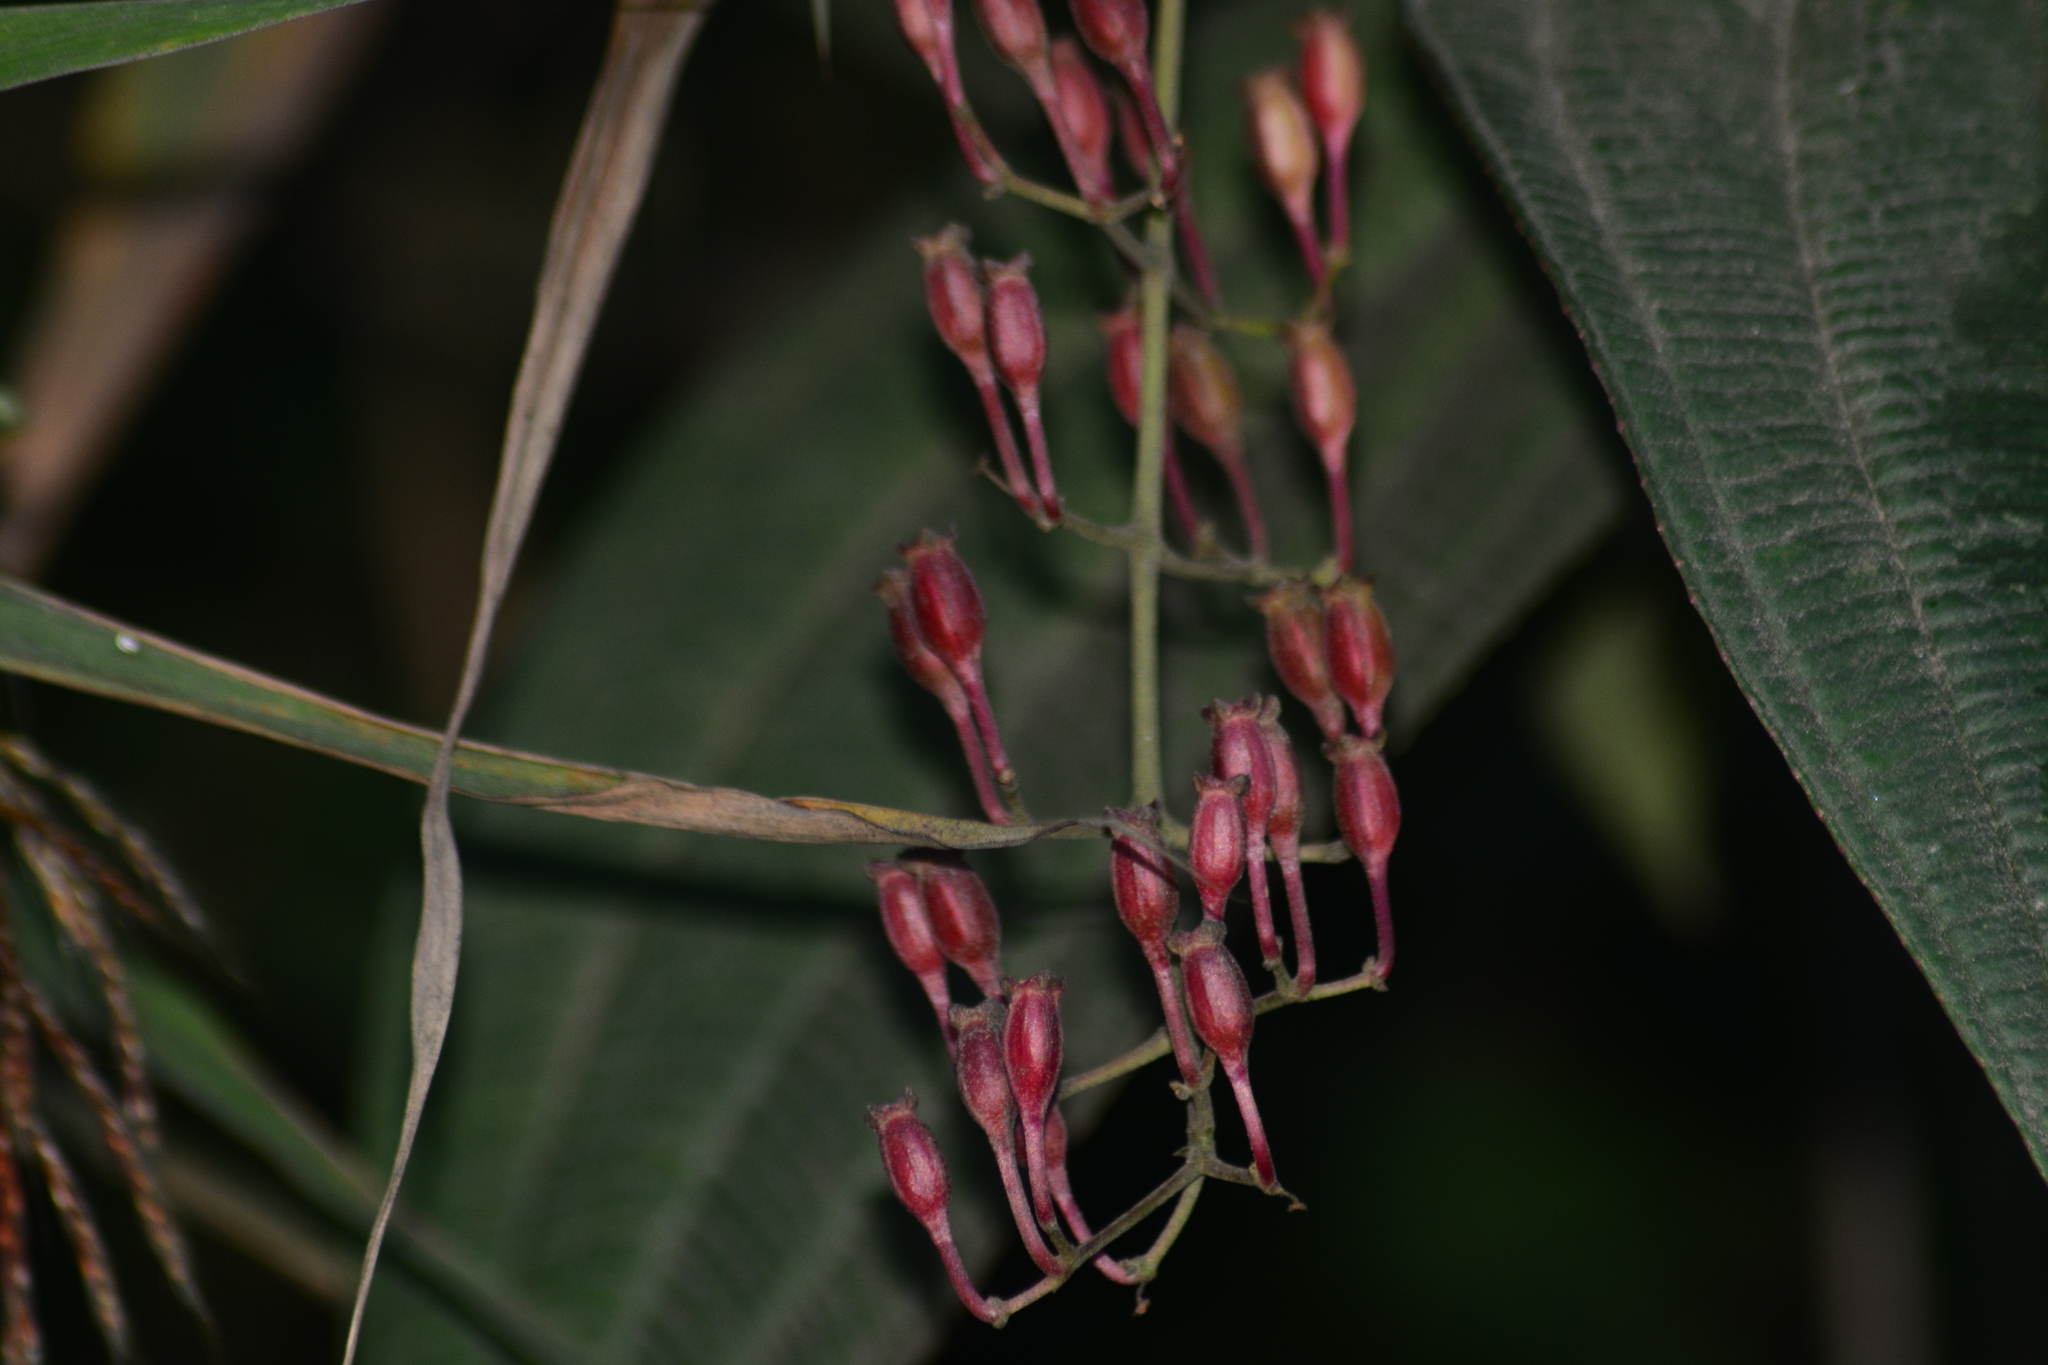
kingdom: Plantae
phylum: Tracheophyta
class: Magnoliopsida
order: Myrtales
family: Melastomataceae
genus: Oxyspora
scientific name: Oxyspora paniculata
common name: Bristletips
